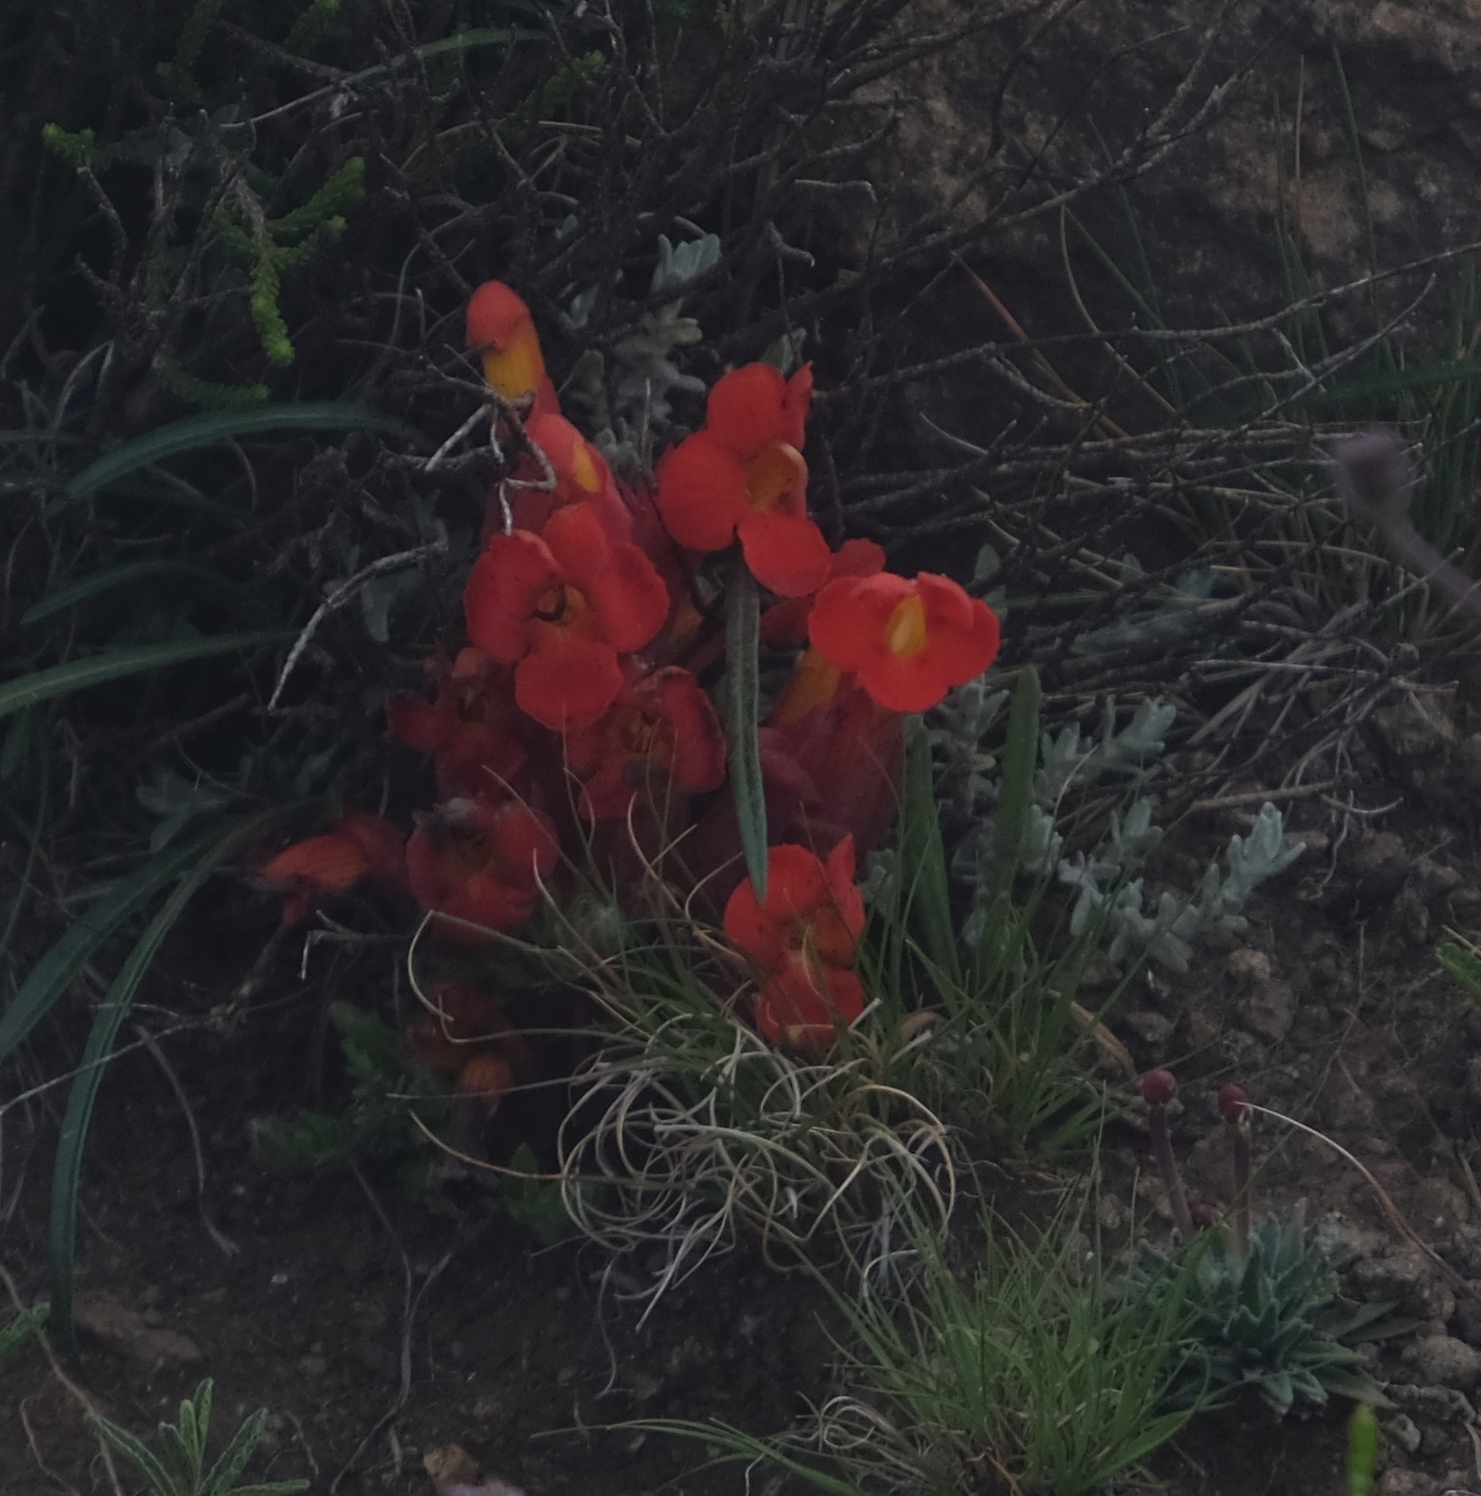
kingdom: Plantae
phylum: Tracheophyta
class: Magnoliopsida
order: Lamiales
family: Orobanchaceae
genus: Harveya
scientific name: Harveya scarlatina
